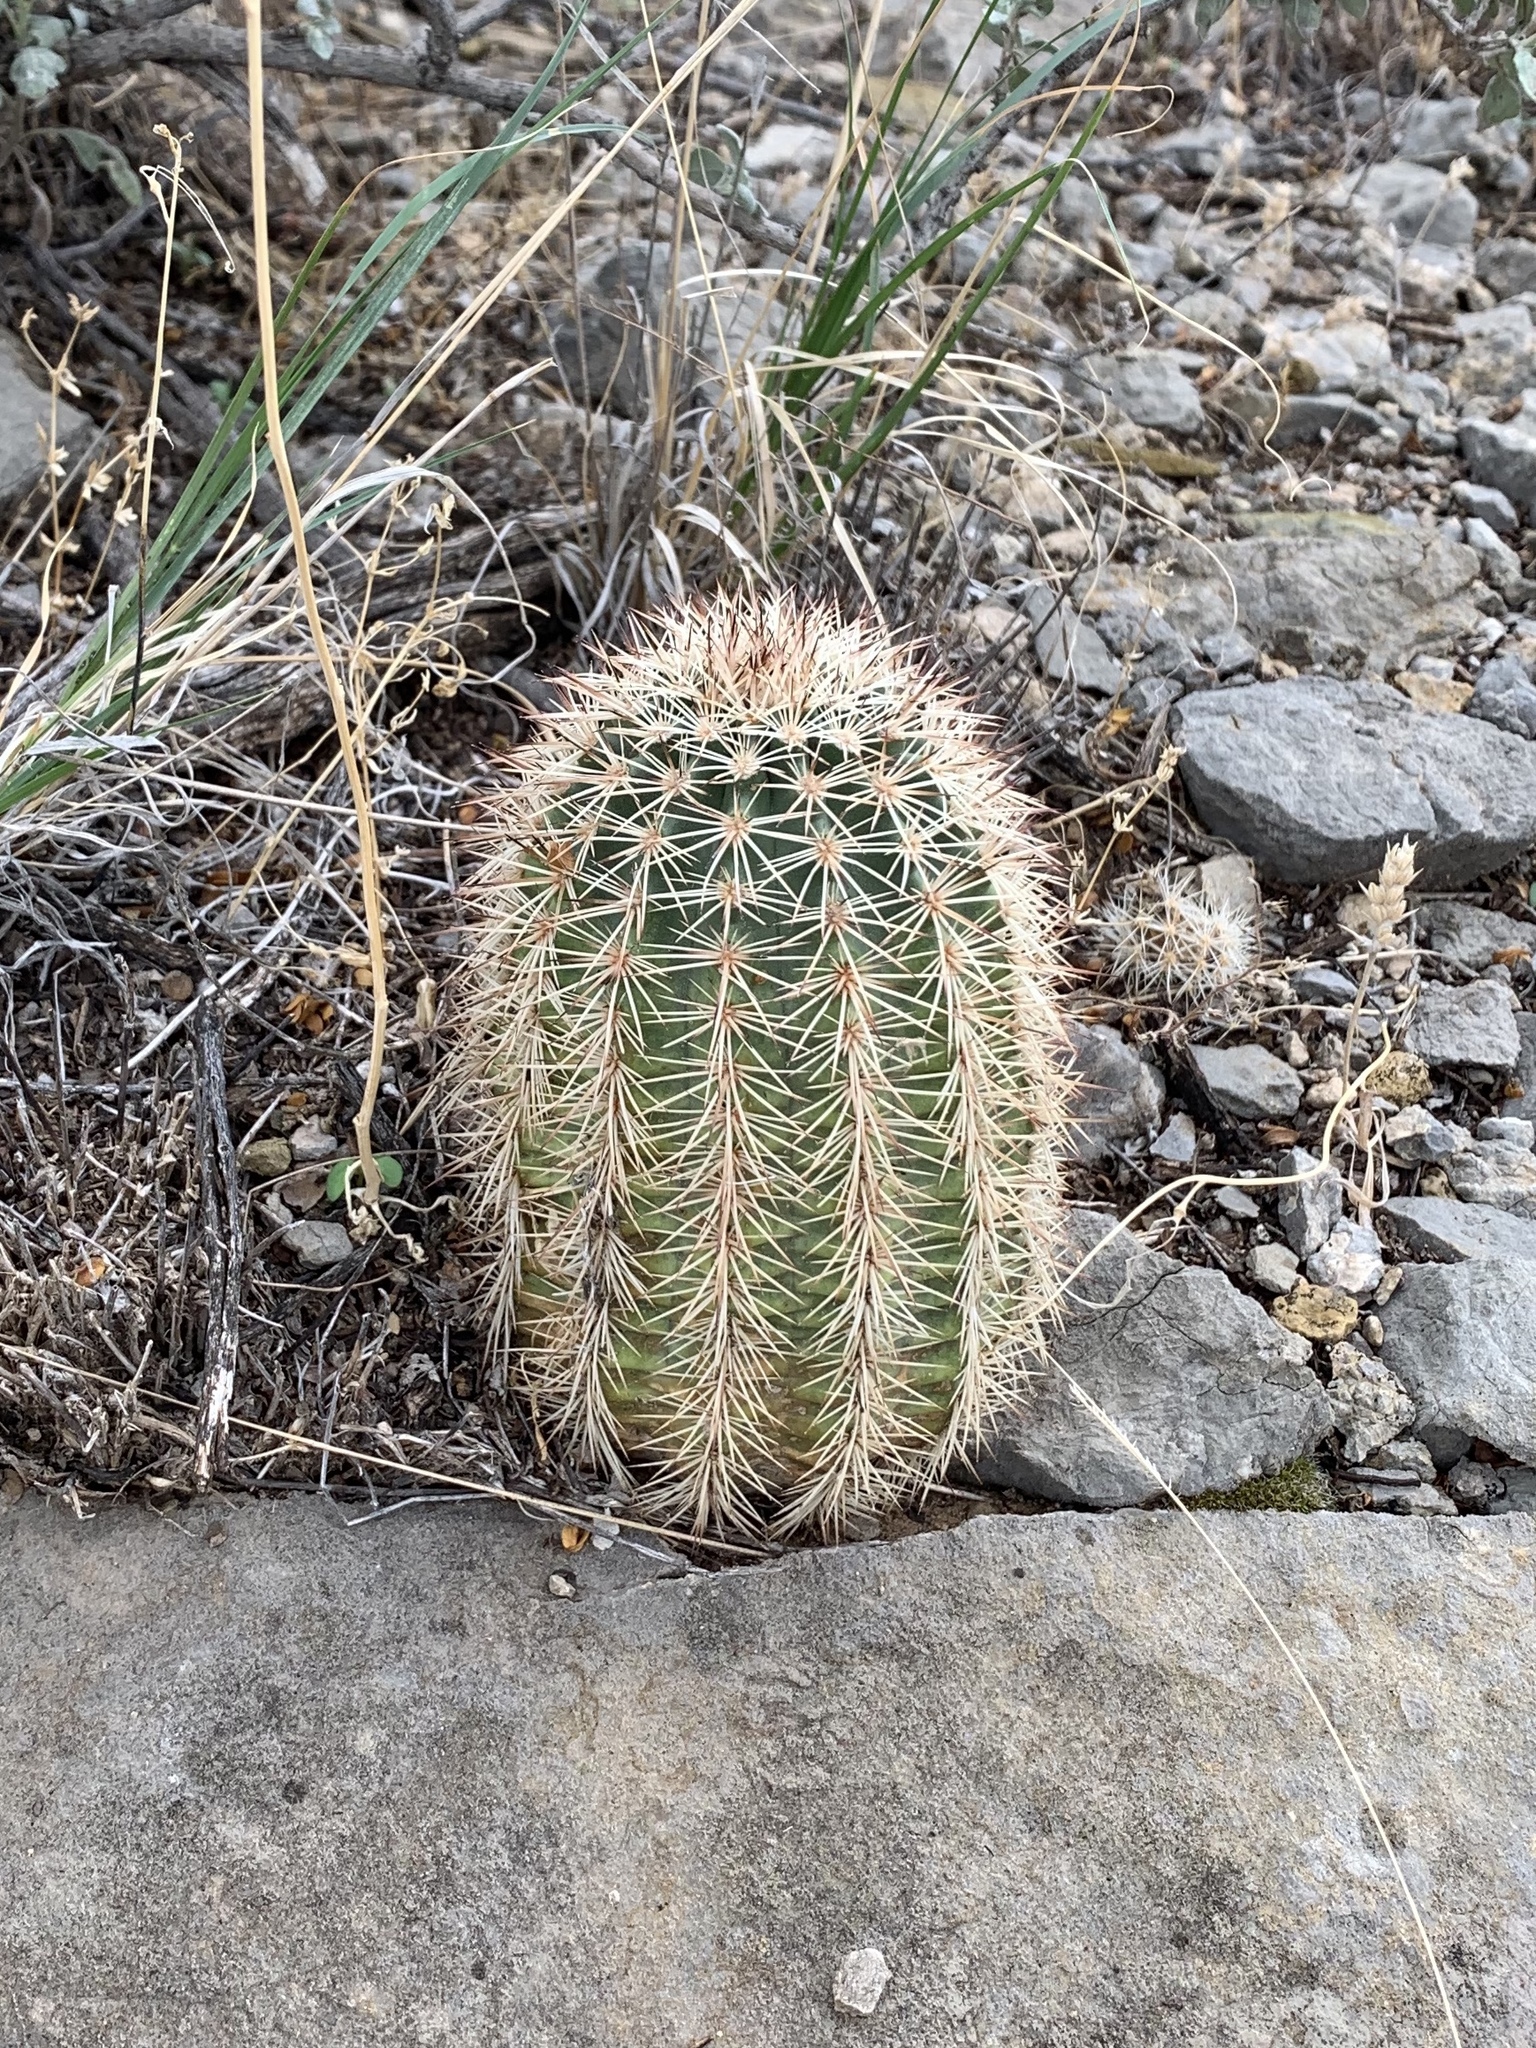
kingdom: Plantae
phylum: Tracheophyta
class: Magnoliopsida
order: Caryophyllales
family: Cactaceae
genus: Echinocereus
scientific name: Echinocereus roetteri
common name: Lloyd's hedgehog cactus
